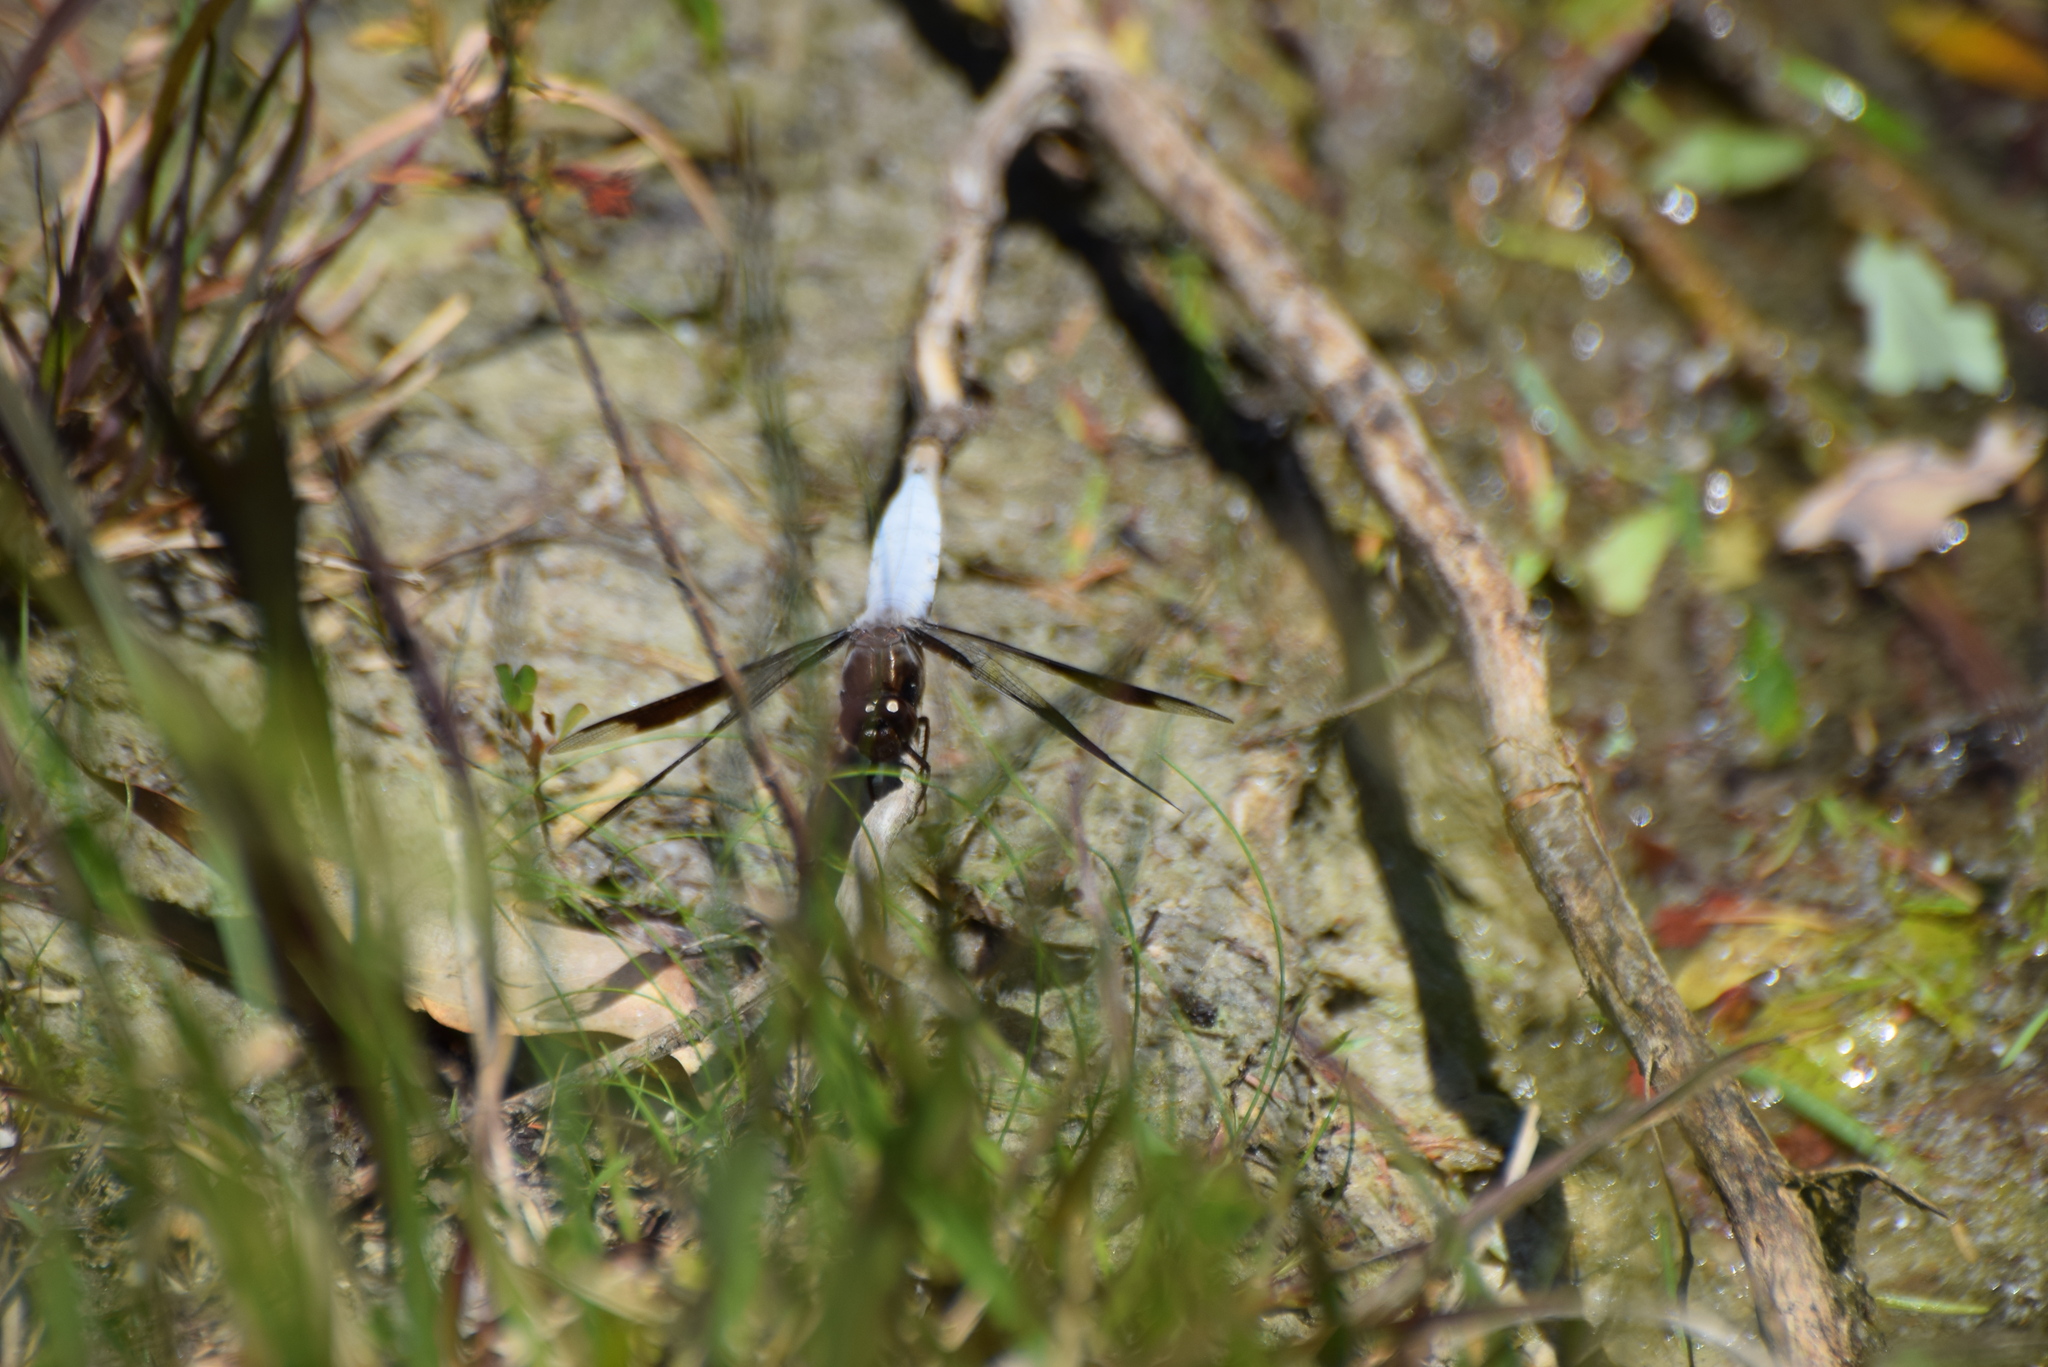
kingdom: Animalia
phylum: Arthropoda
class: Insecta
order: Odonata
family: Libellulidae
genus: Plathemis
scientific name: Plathemis lydia
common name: Common whitetail
